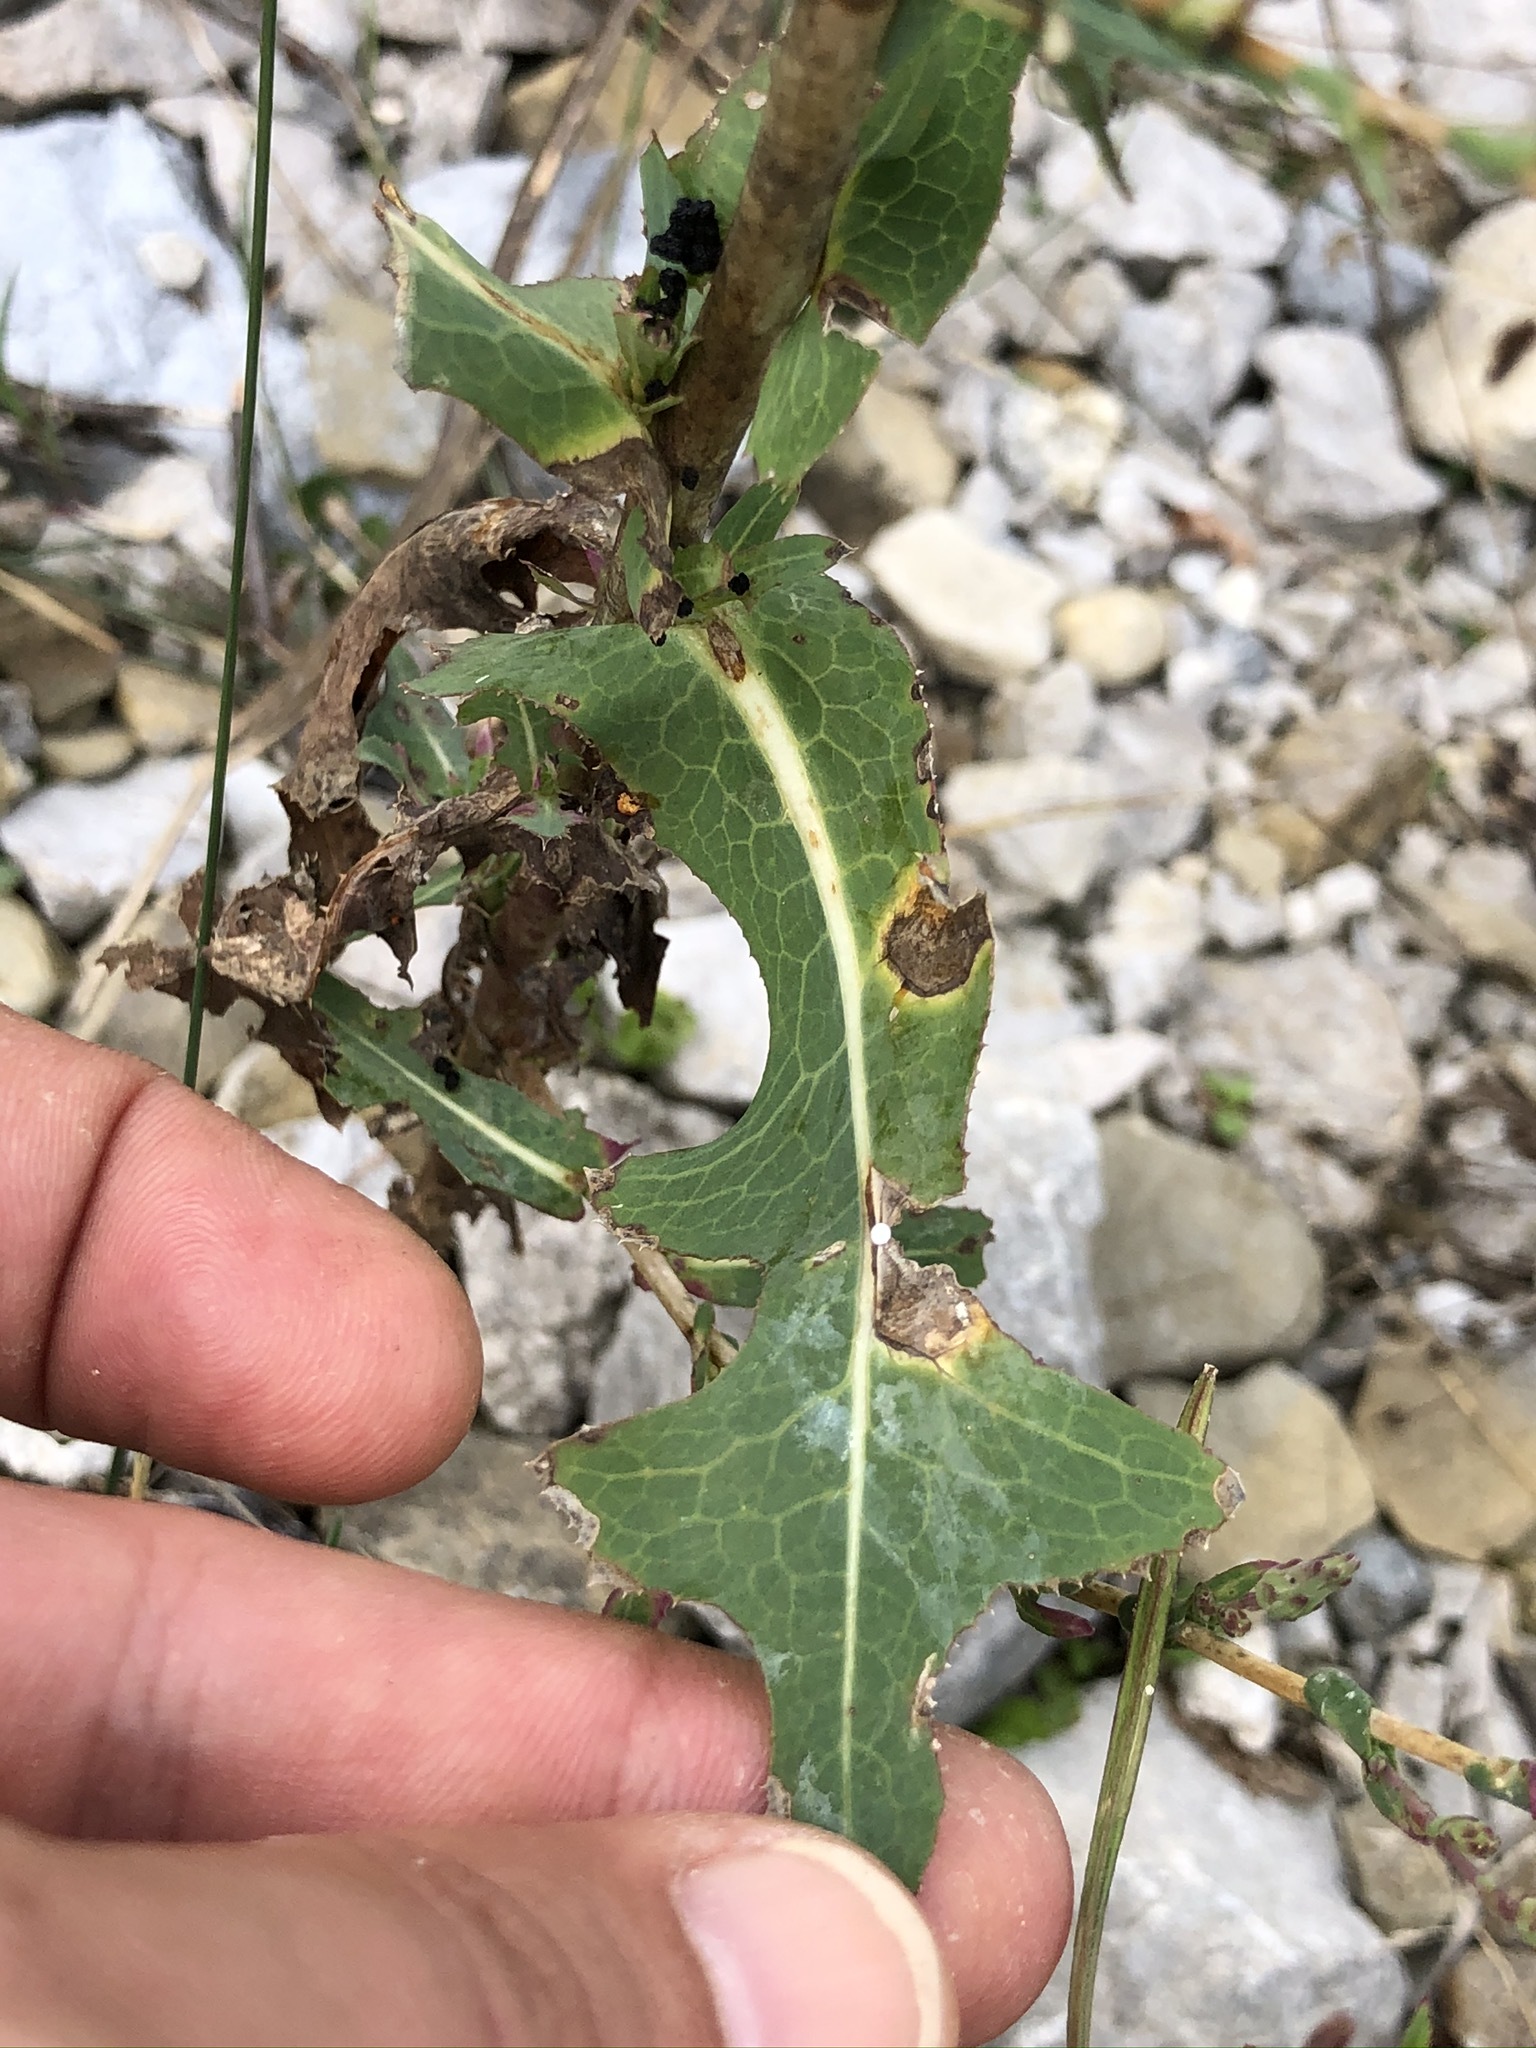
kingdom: Plantae
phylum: Tracheophyta
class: Magnoliopsida
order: Asterales
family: Asteraceae
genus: Lactuca
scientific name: Lactuca serriola
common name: Prickly lettuce
